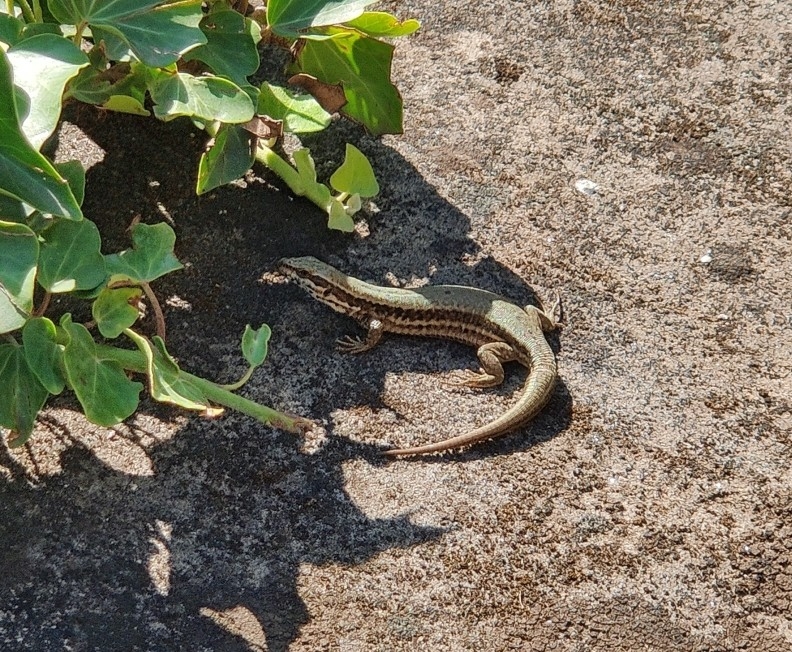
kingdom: Animalia
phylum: Chordata
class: Squamata
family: Lacertidae
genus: Podarcis
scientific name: Podarcis muralis
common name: Common wall lizard
